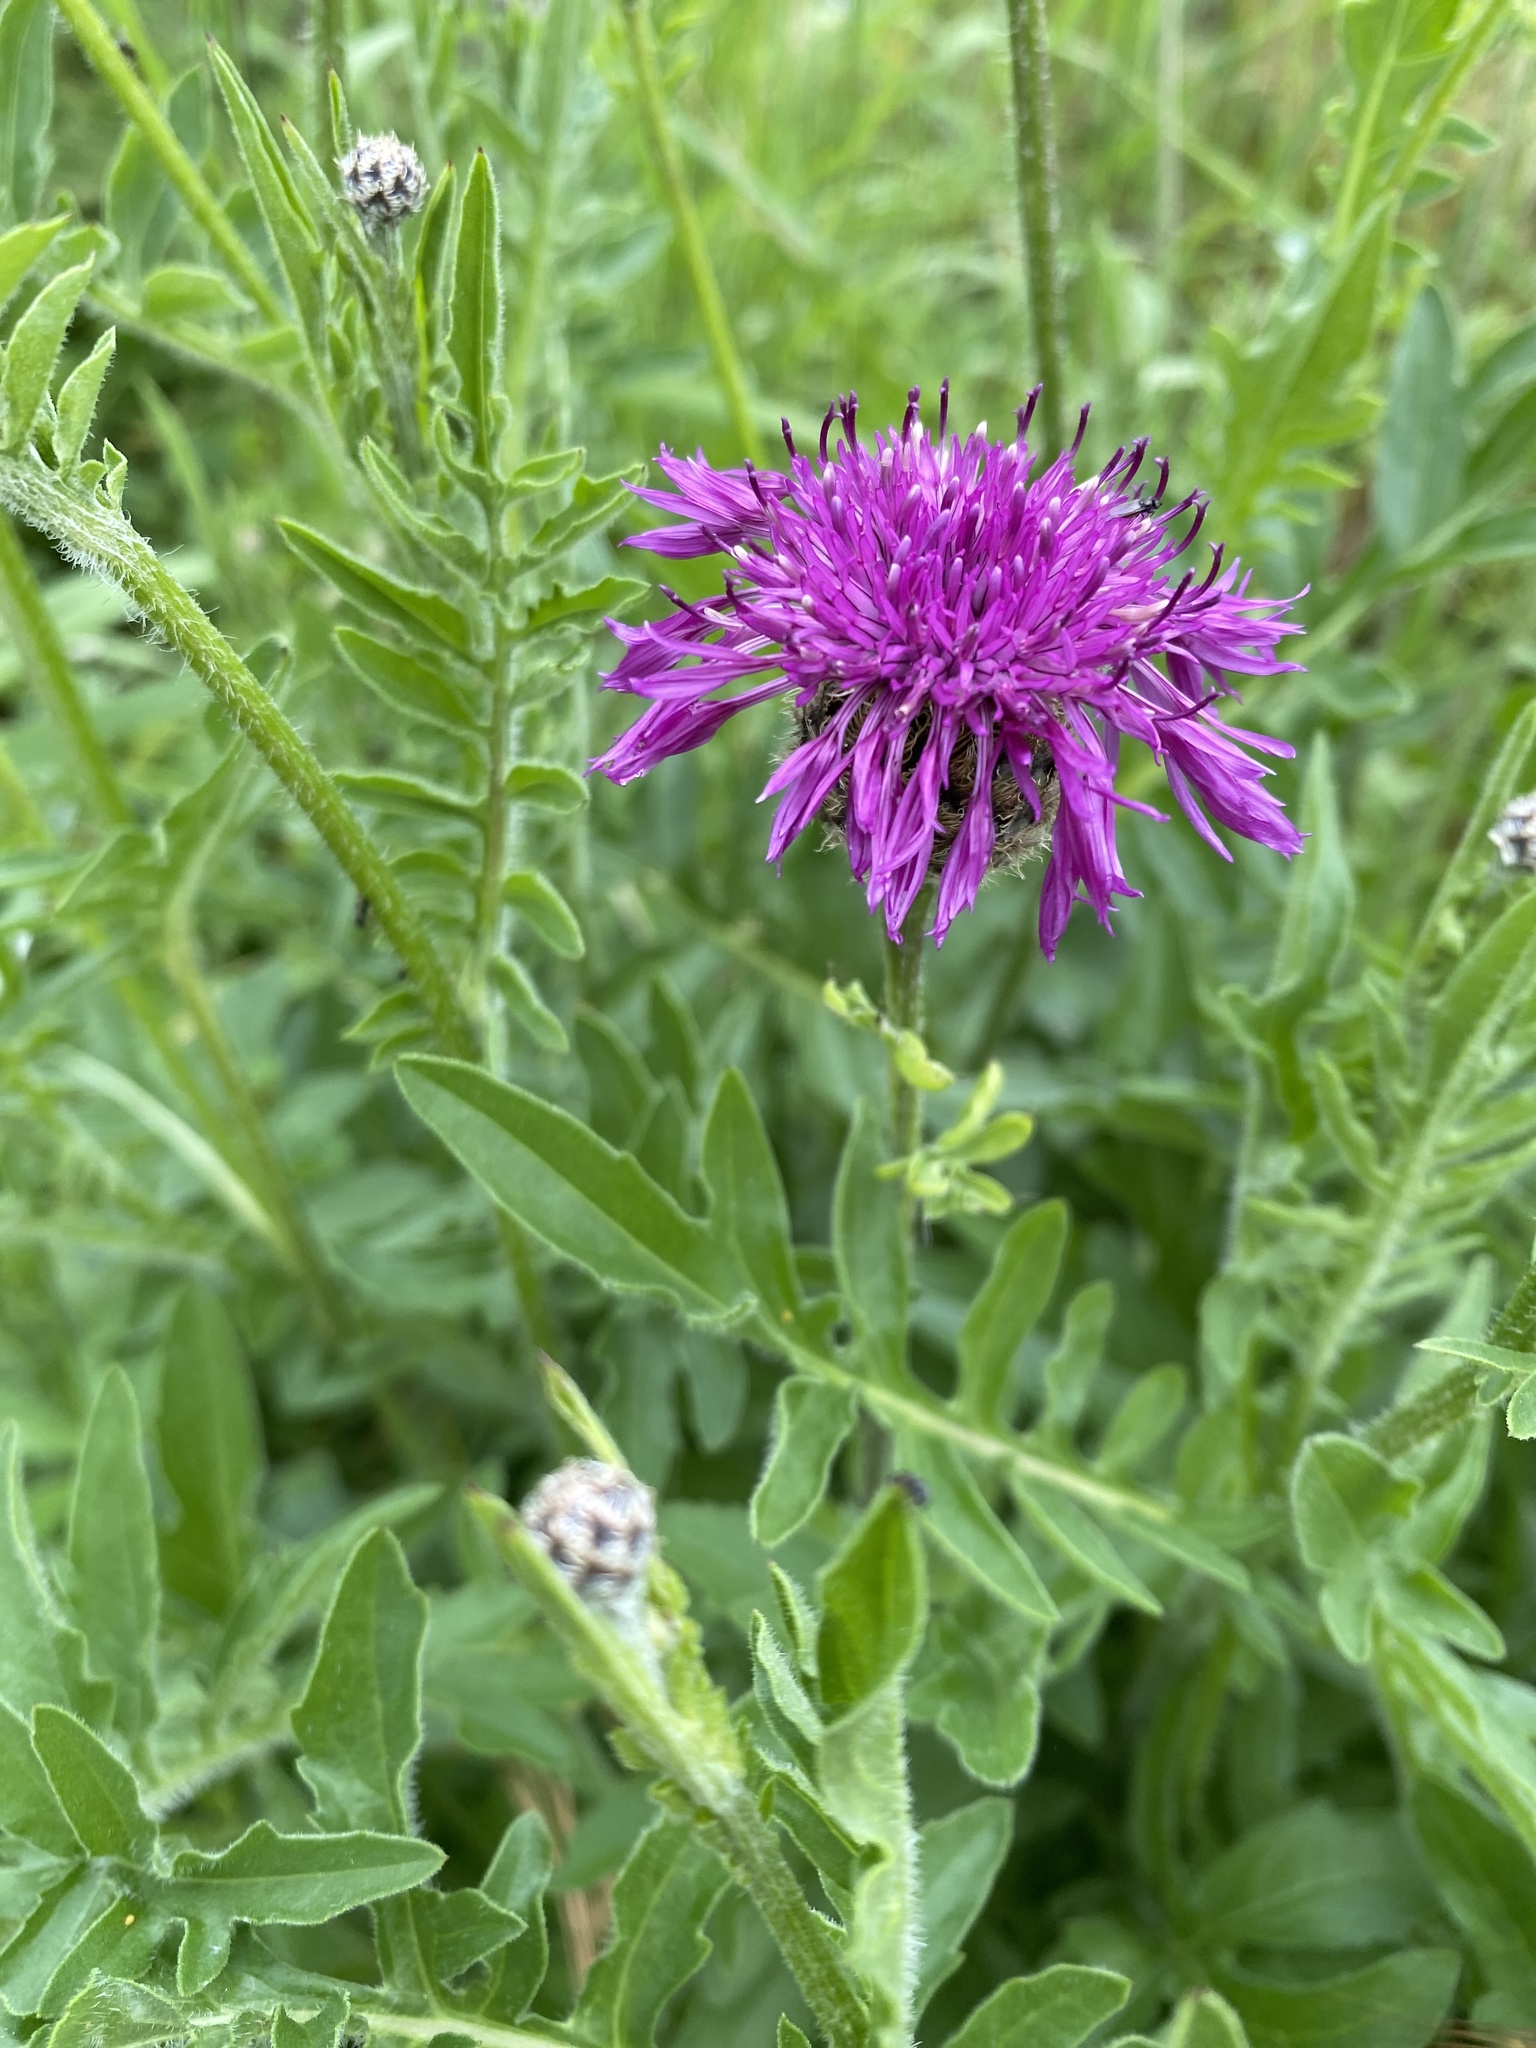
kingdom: Plantae
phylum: Tracheophyta
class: Magnoliopsida
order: Asterales
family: Asteraceae
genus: Centaurea
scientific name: Centaurea scabiosa
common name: Greater knapweed
